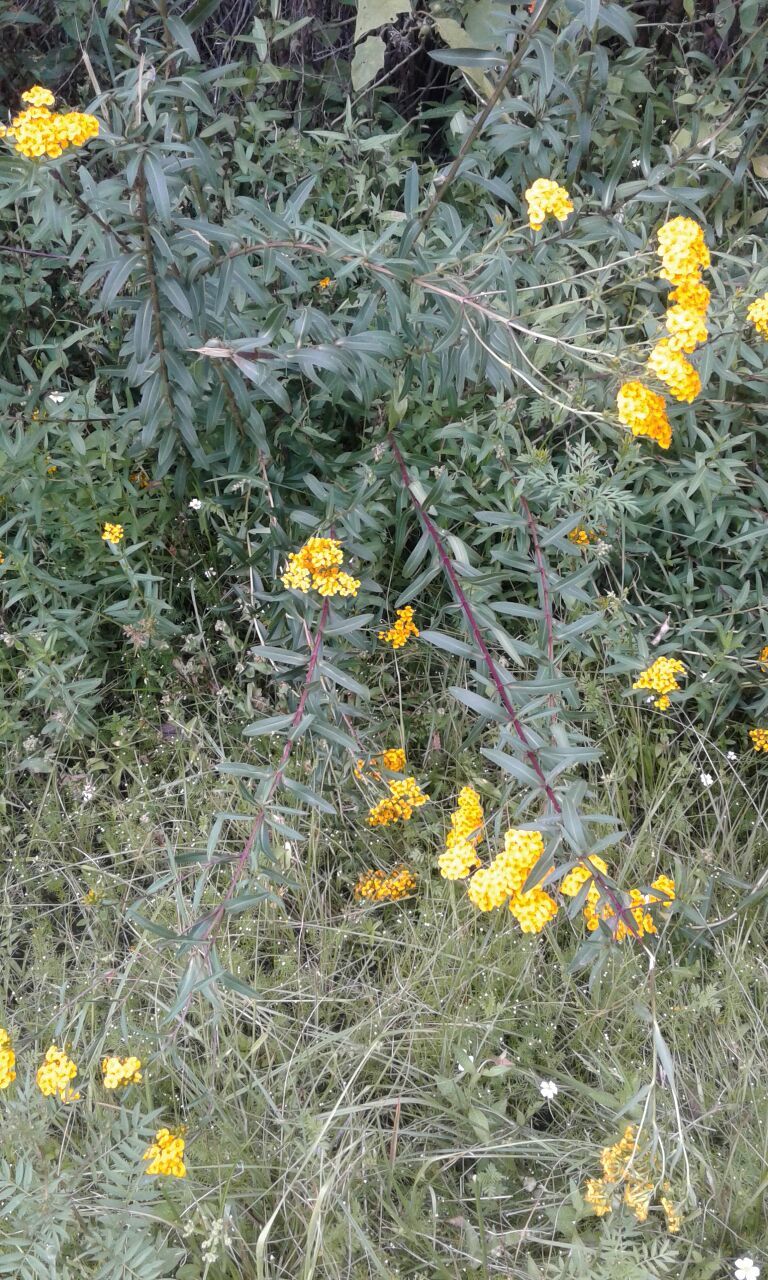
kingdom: Plantae
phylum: Tracheophyta
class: Magnoliopsida
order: Asterales
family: Asteraceae
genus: Tagetes
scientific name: Tagetes lucida
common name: Sweetscented marigold
